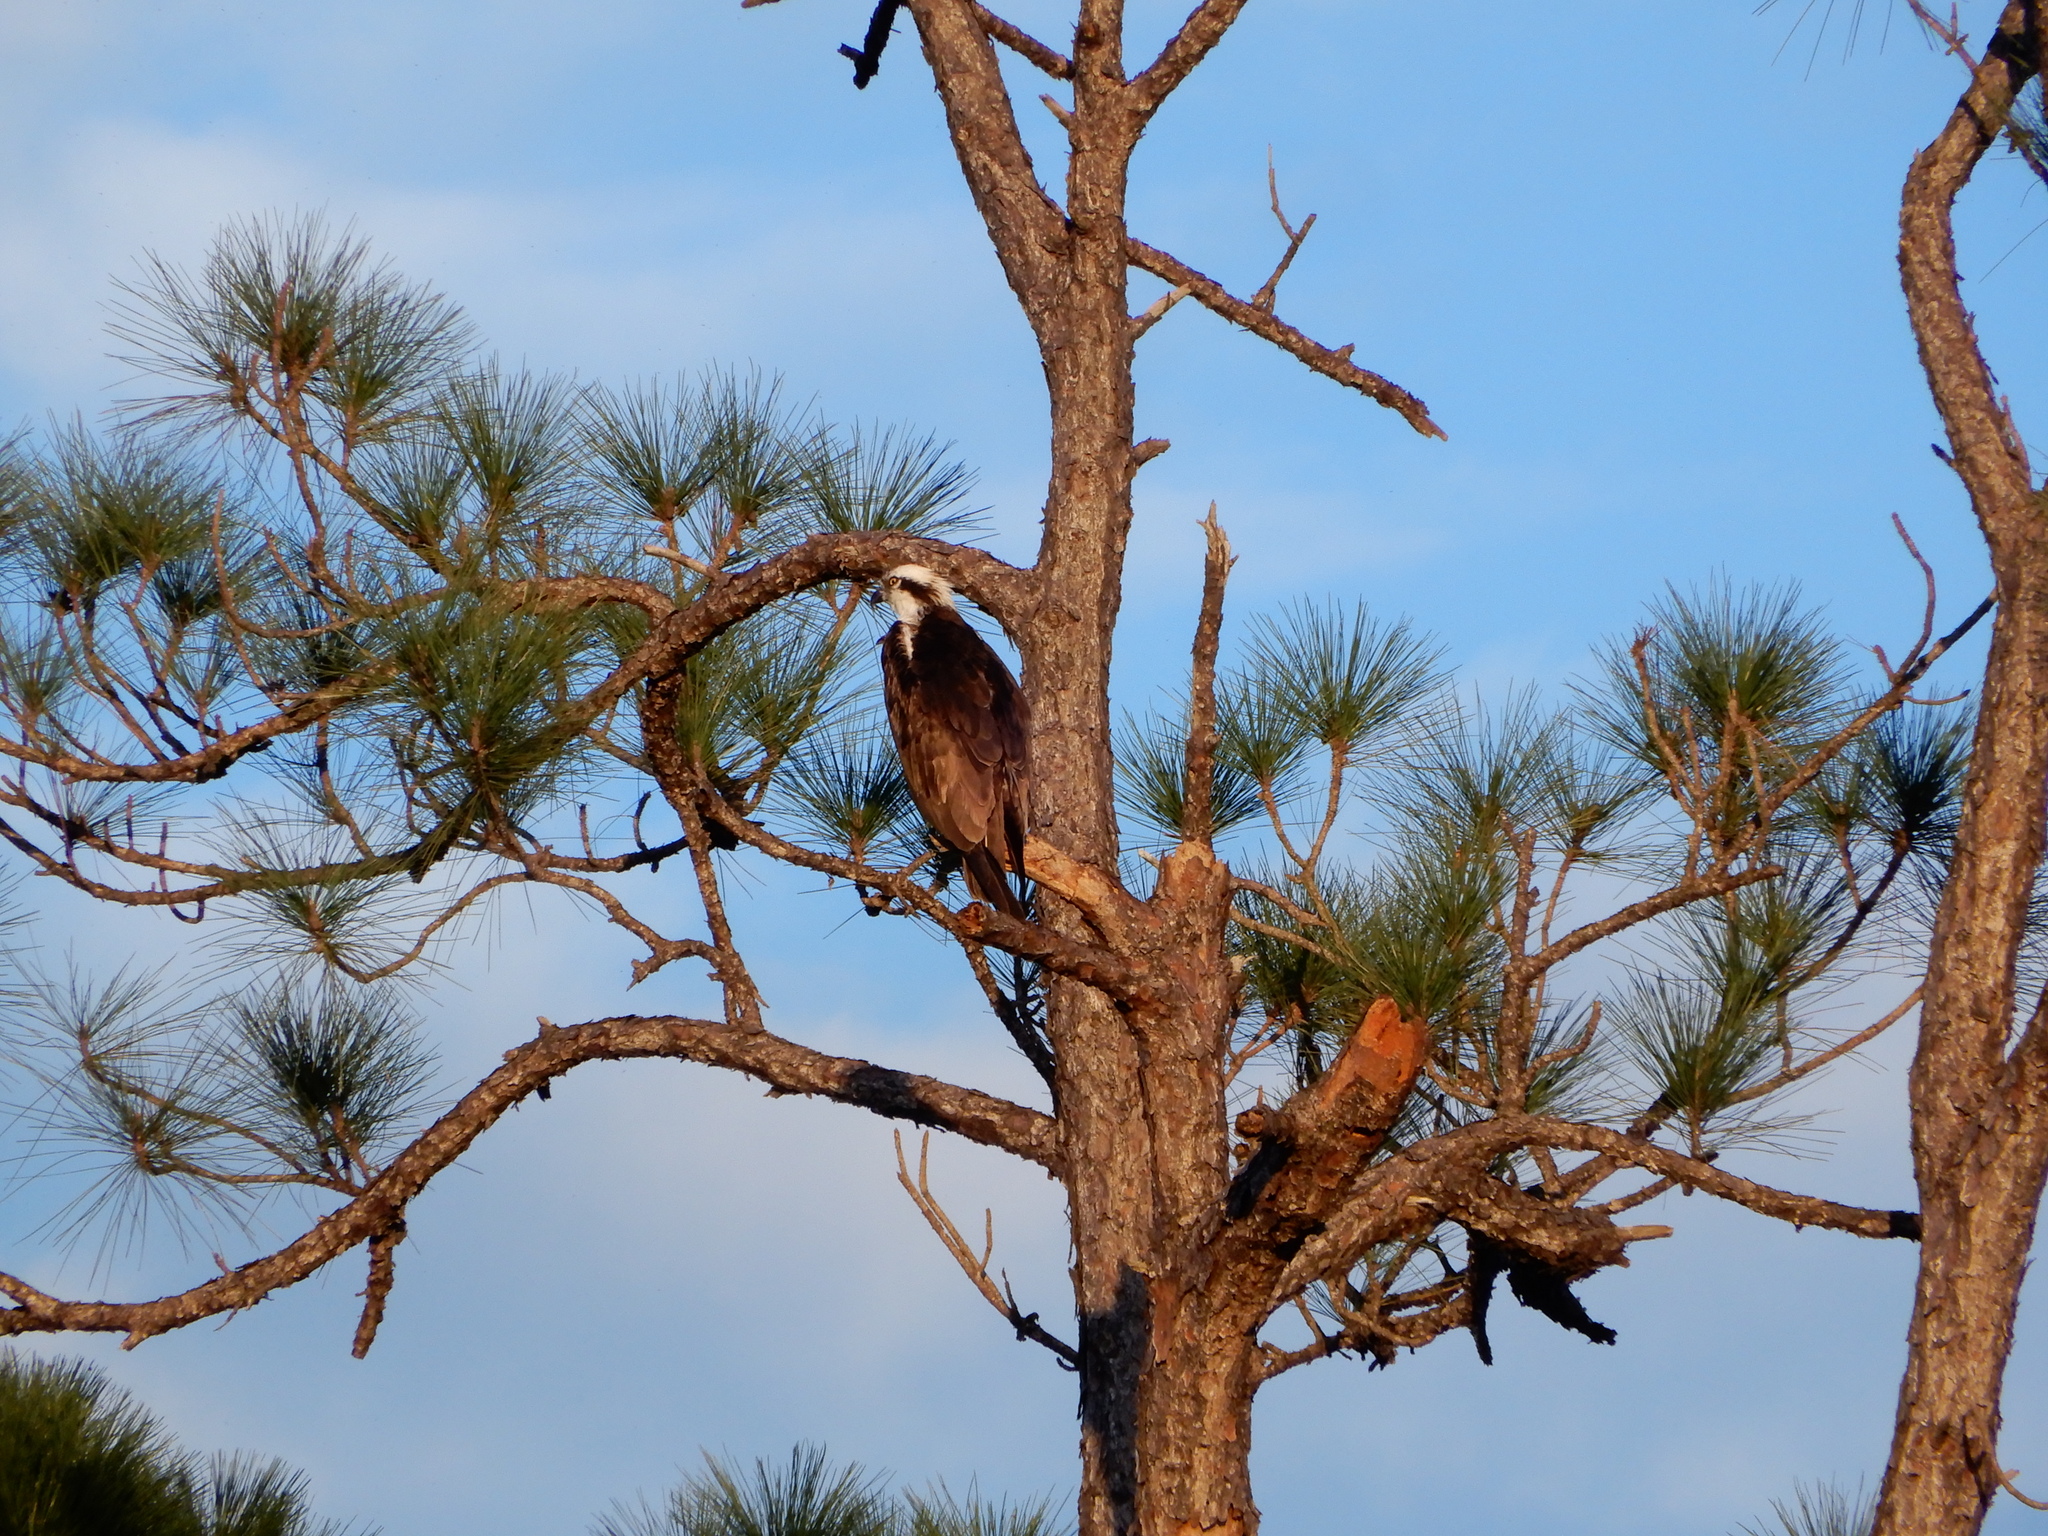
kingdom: Animalia
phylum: Chordata
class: Aves
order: Accipitriformes
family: Pandionidae
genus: Pandion
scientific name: Pandion haliaetus
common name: Osprey
